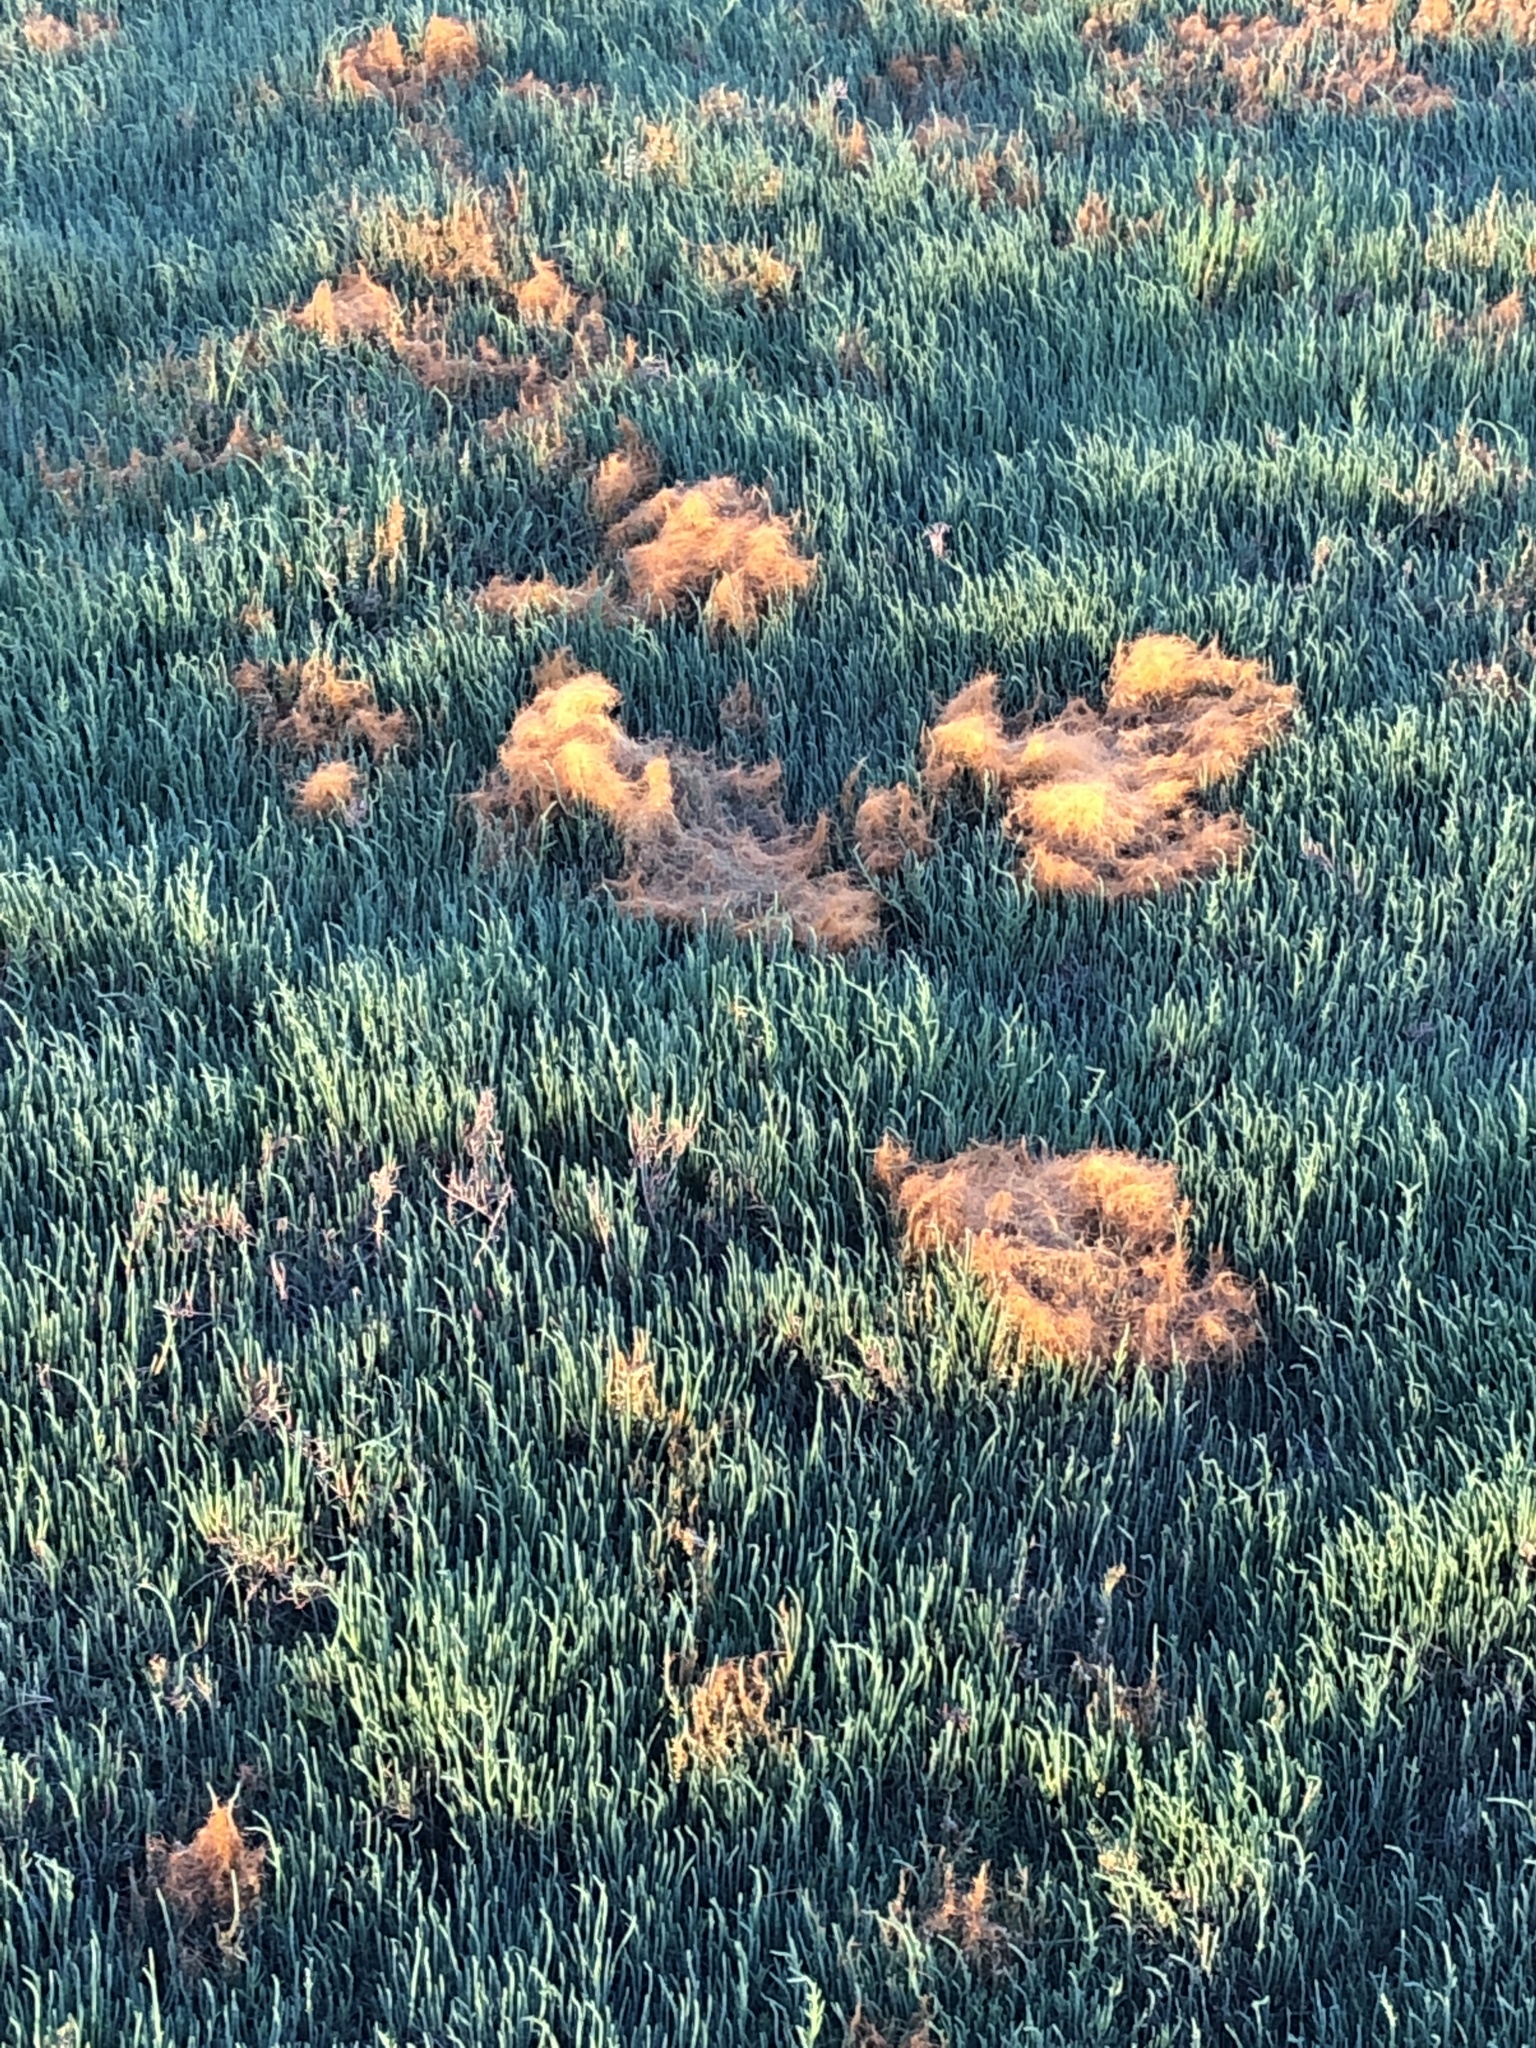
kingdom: Plantae
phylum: Tracheophyta
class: Magnoliopsida
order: Solanales
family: Convolvulaceae
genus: Cuscuta
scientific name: Cuscuta pacifica
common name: Large saltmarsh dodder
